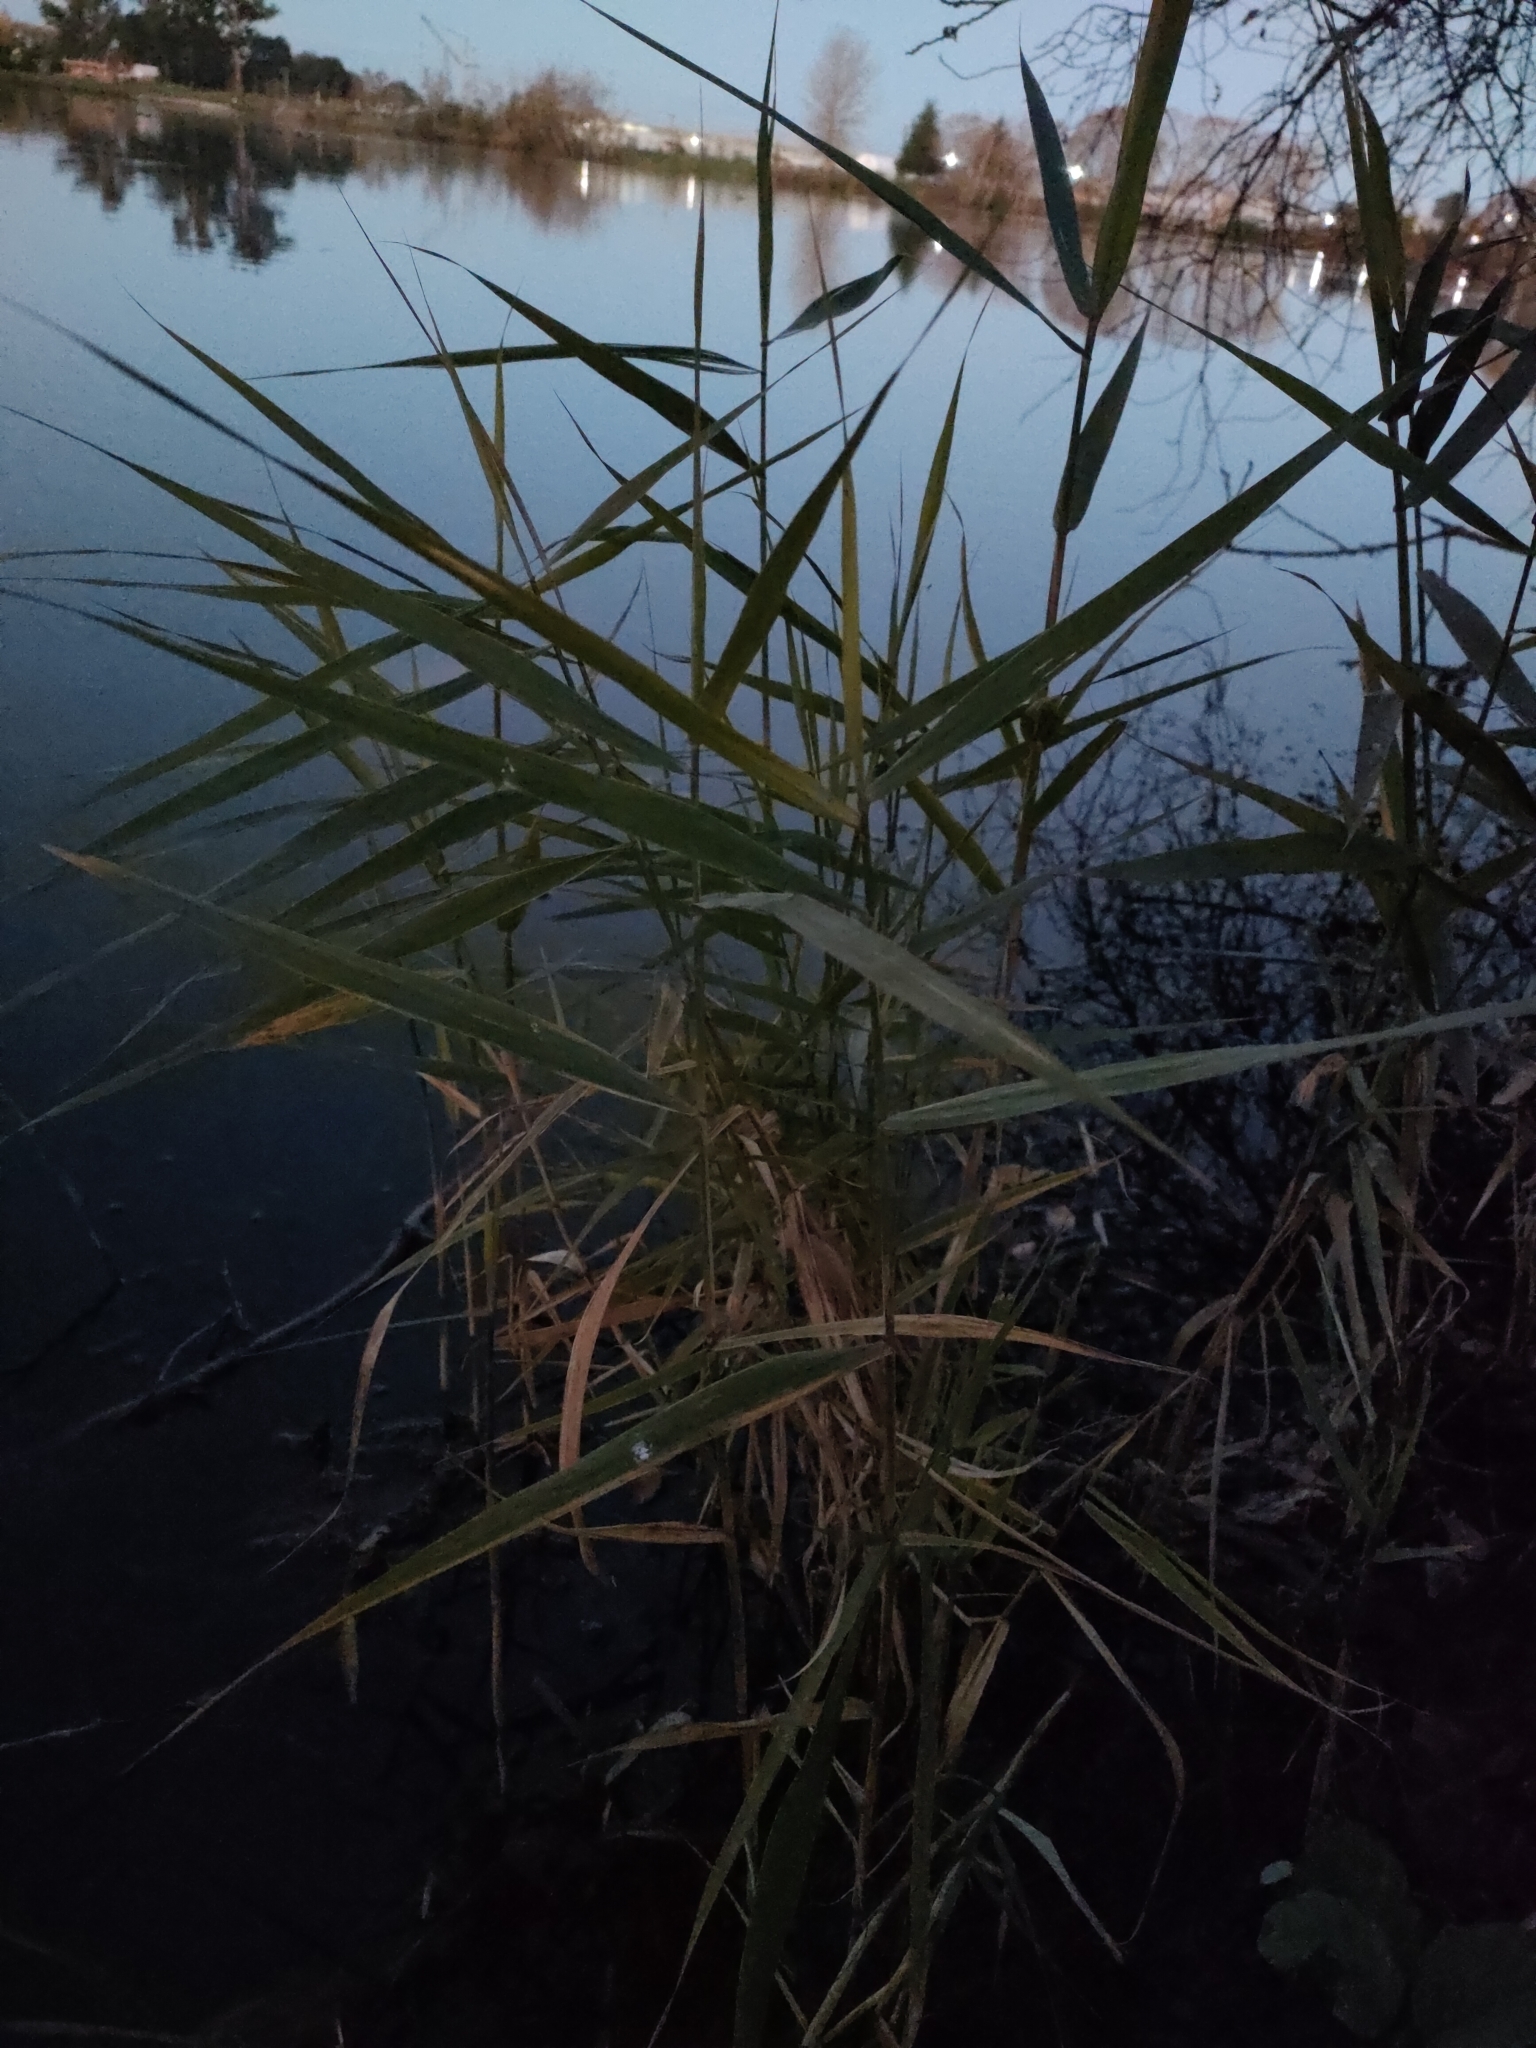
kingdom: Plantae
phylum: Tracheophyta
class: Liliopsida
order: Poales
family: Poaceae
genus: Phragmites
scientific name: Phragmites australis
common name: Common reed
